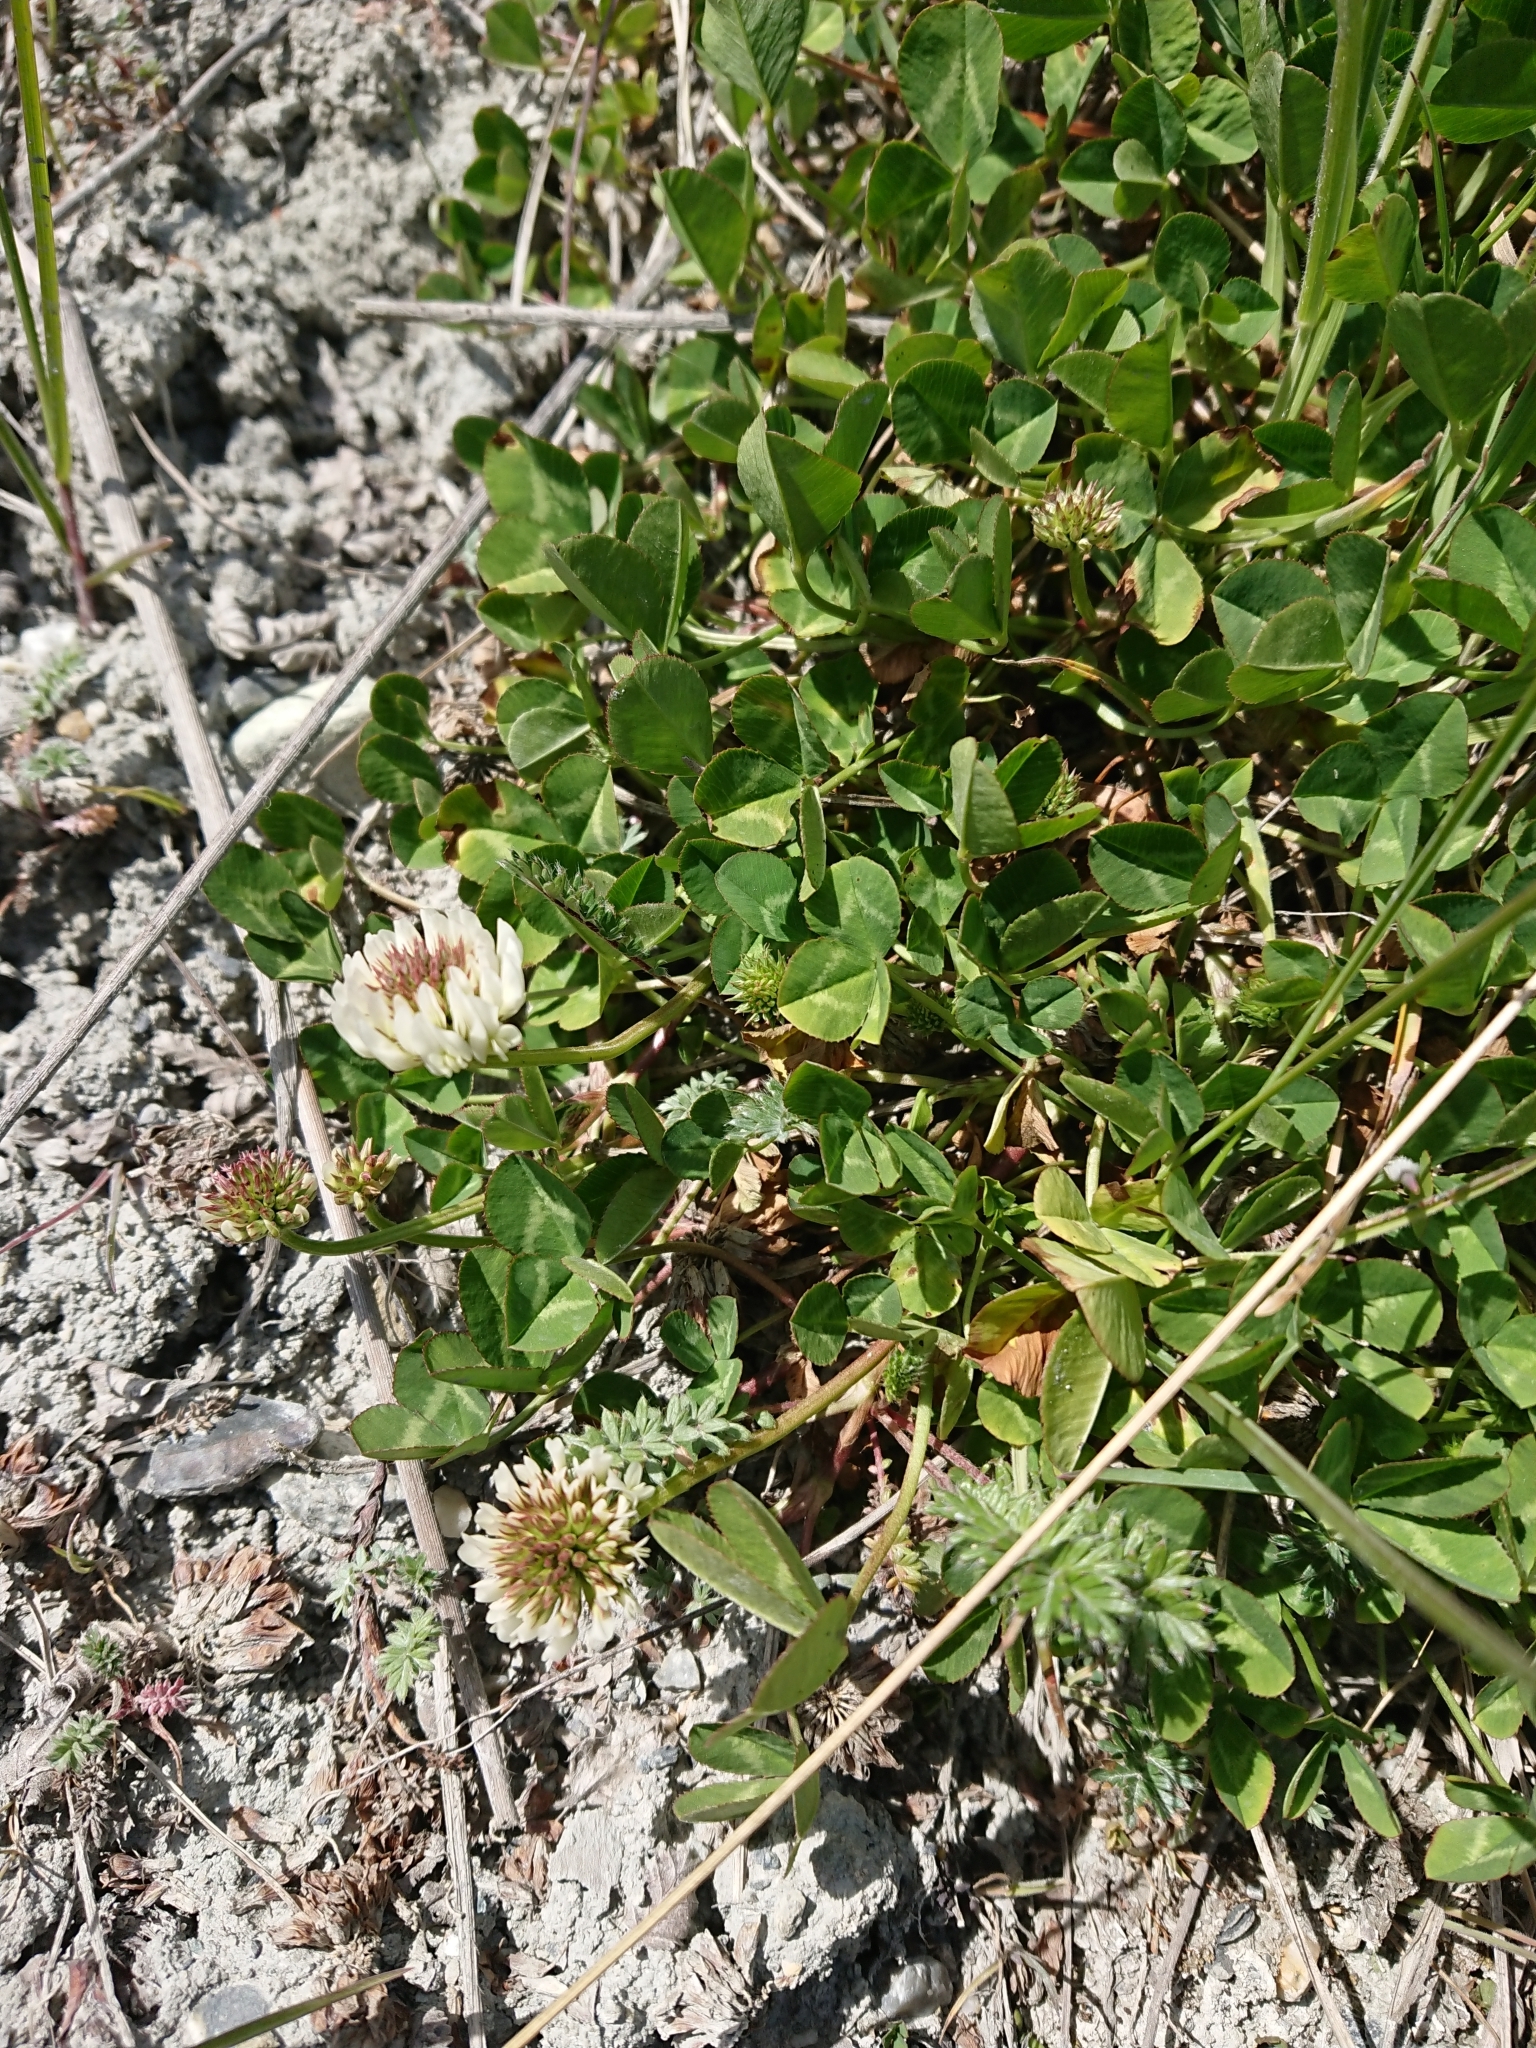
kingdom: Plantae
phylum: Tracheophyta
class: Magnoliopsida
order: Fabales
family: Fabaceae
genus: Trifolium
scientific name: Trifolium repens
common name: White clover
